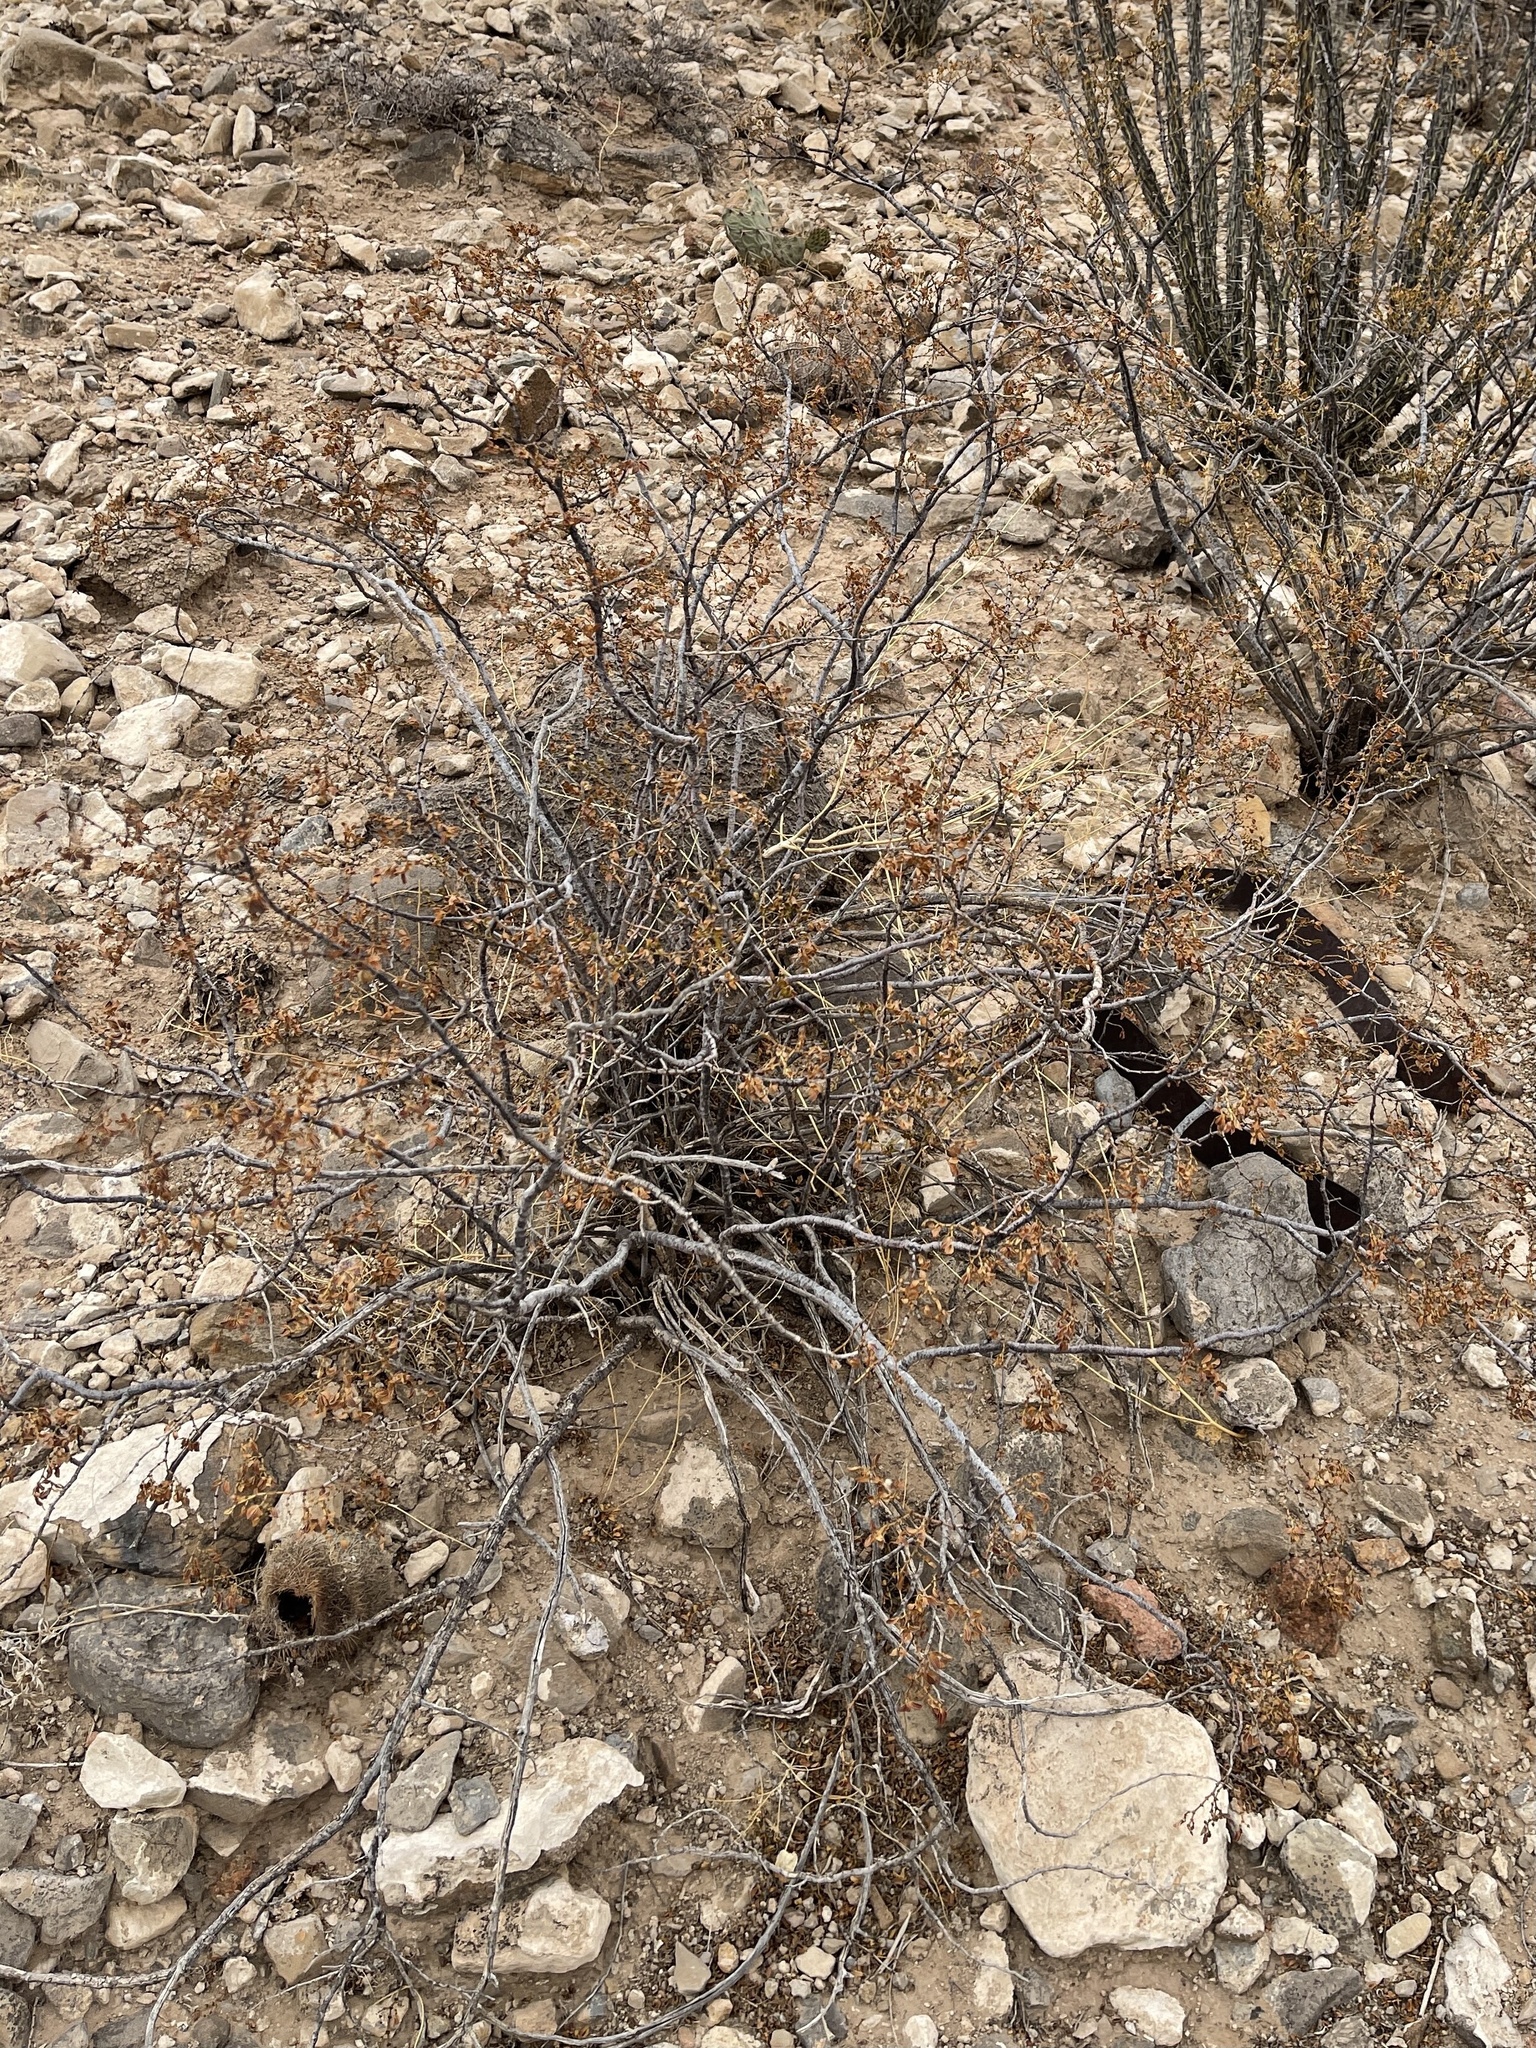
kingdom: Plantae
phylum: Tracheophyta
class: Magnoliopsida
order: Zygophyllales
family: Zygophyllaceae
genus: Larrea
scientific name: Larrea tridentata
